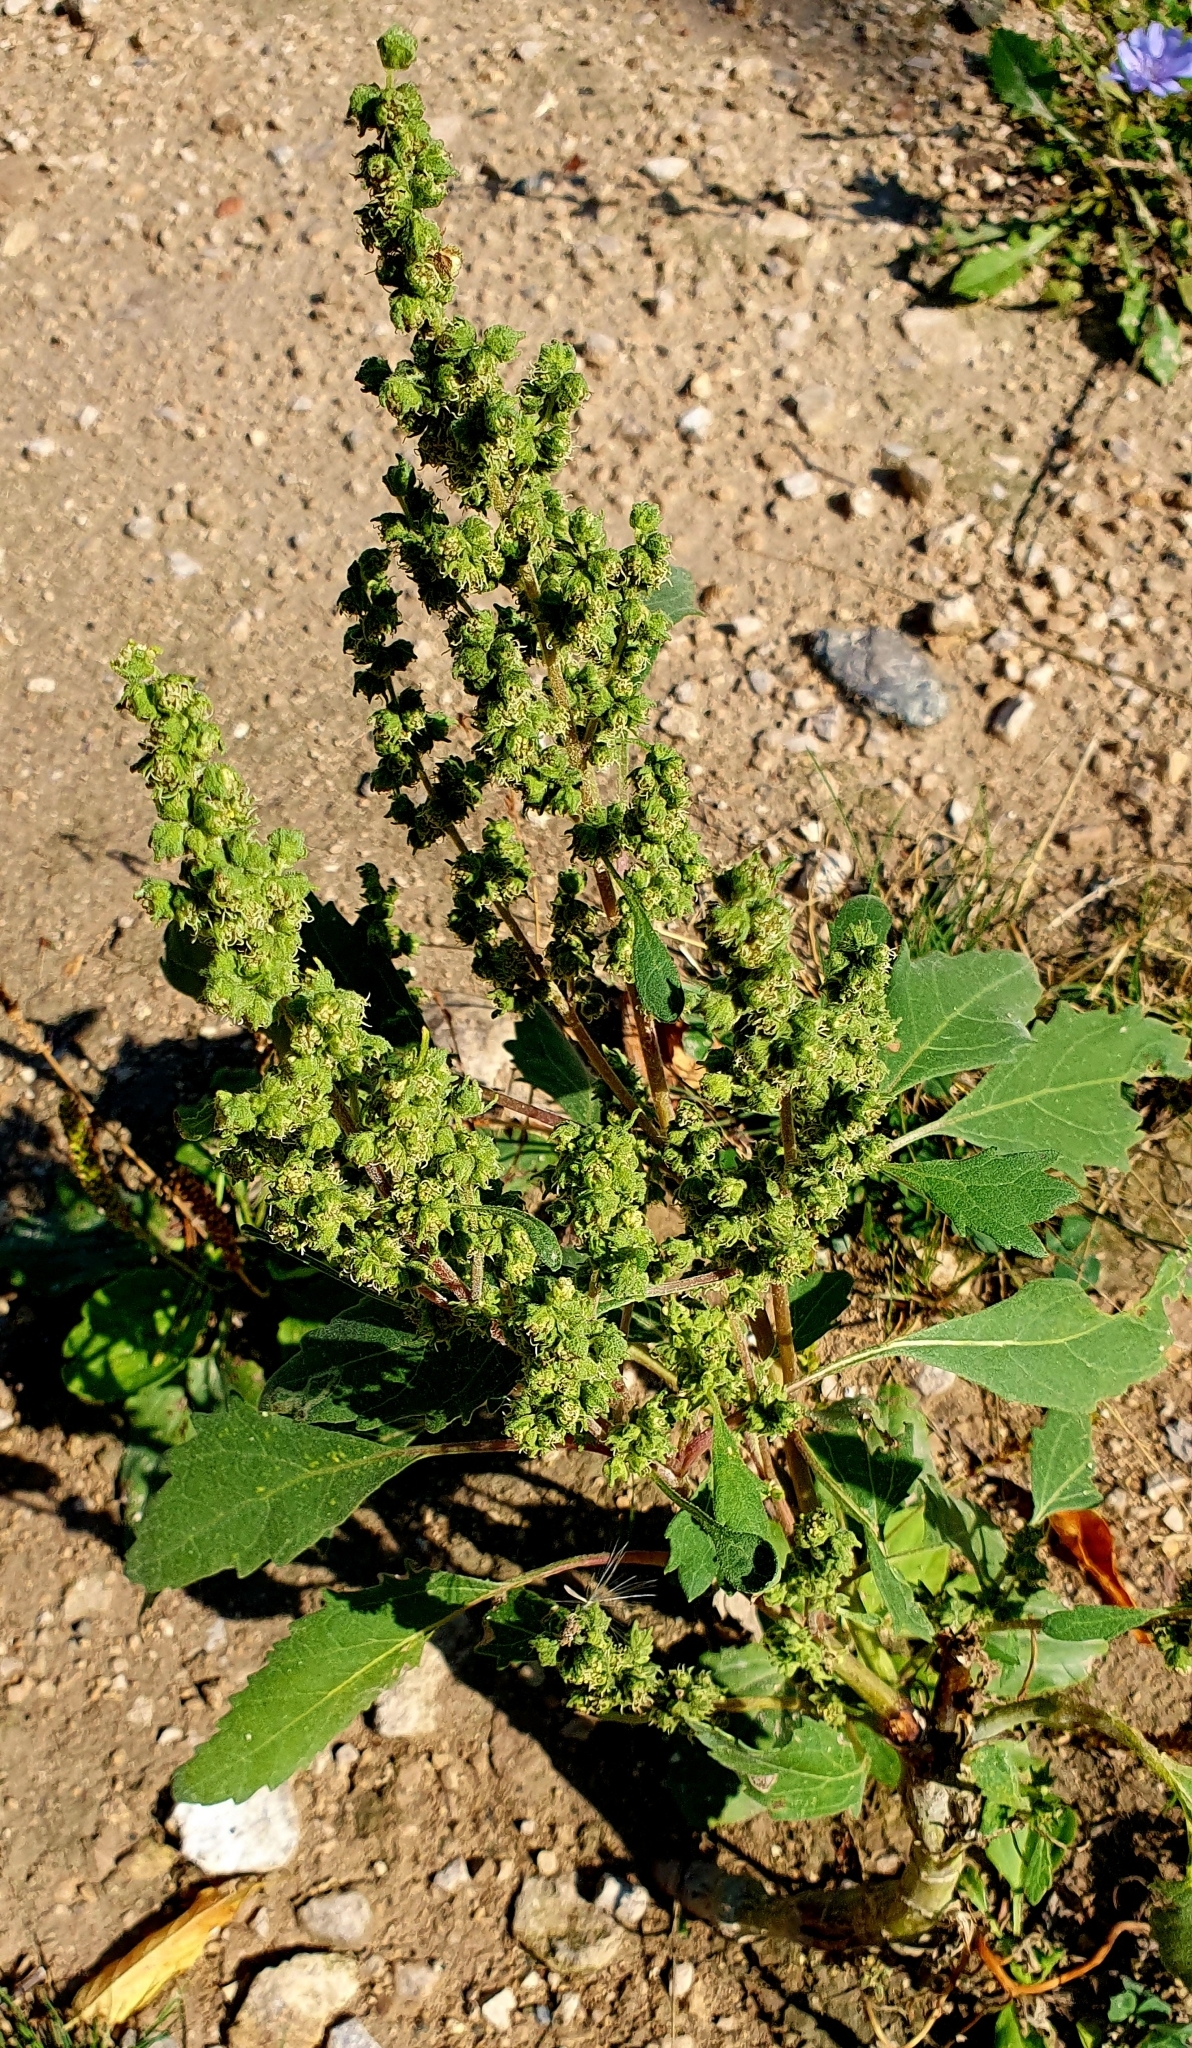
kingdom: Plantae
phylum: Tracheophyta
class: Magnoliopsida
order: Asterales
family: Asteraceae
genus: Cyclachaena
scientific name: Cyclachaena xanthiifolia
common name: Giant sumpweed
